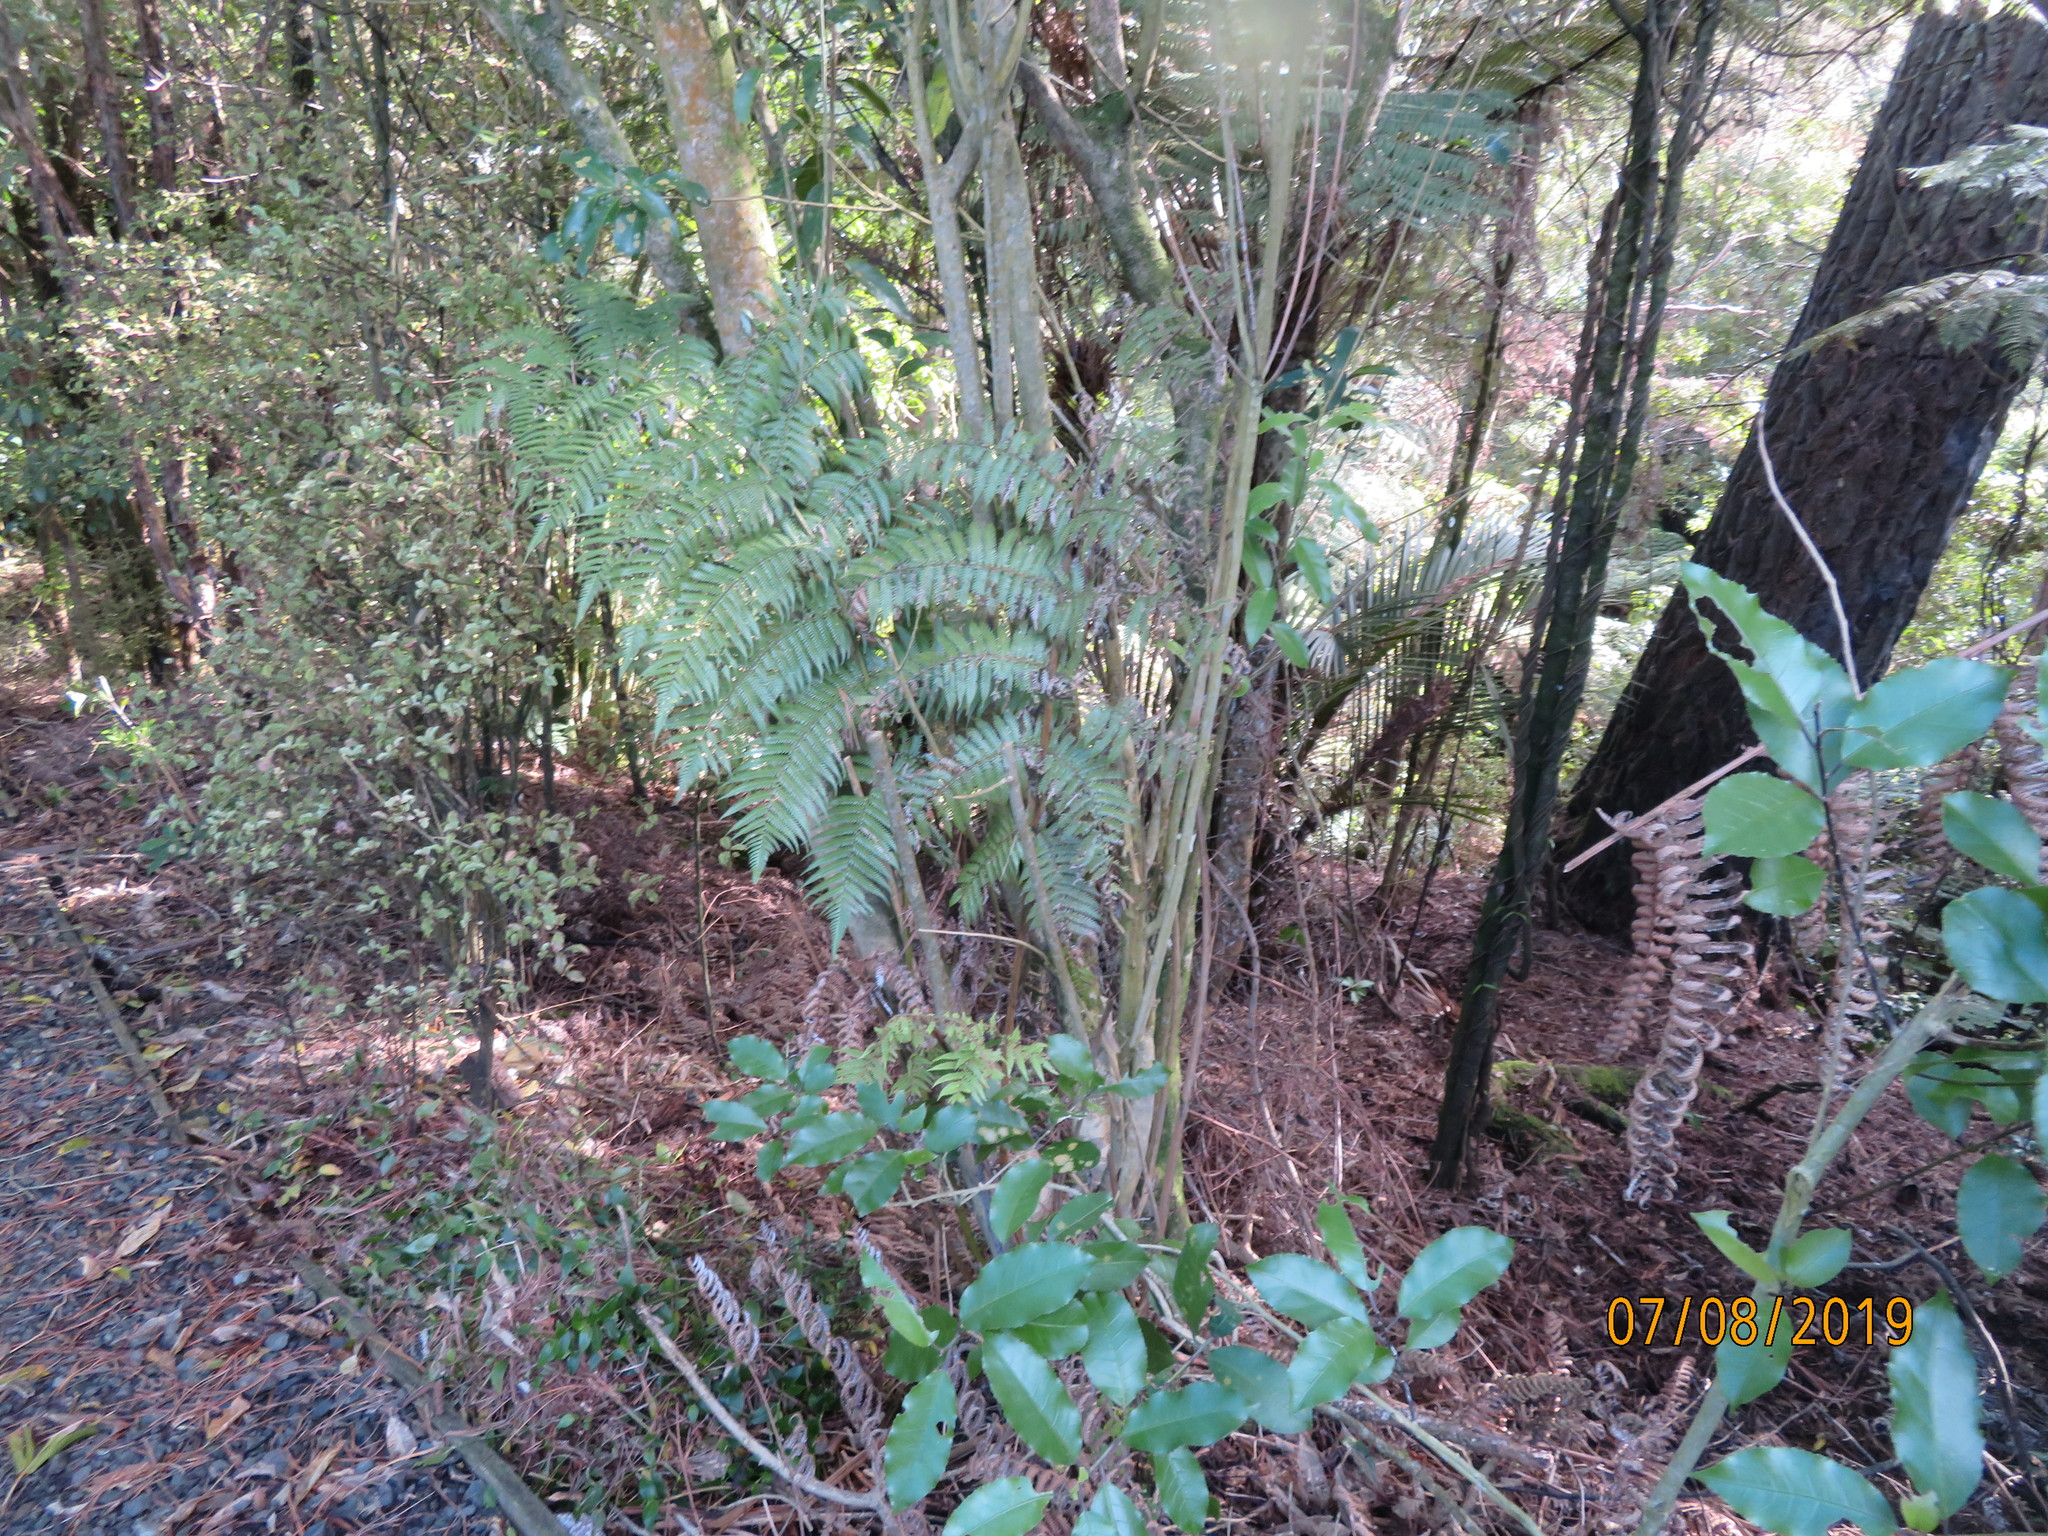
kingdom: Plantae
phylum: Tracheophyta
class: Polypodiopsida
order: Cyatheales
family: Cyatheaceae
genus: Alsophila
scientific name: Alsophila dealbata
